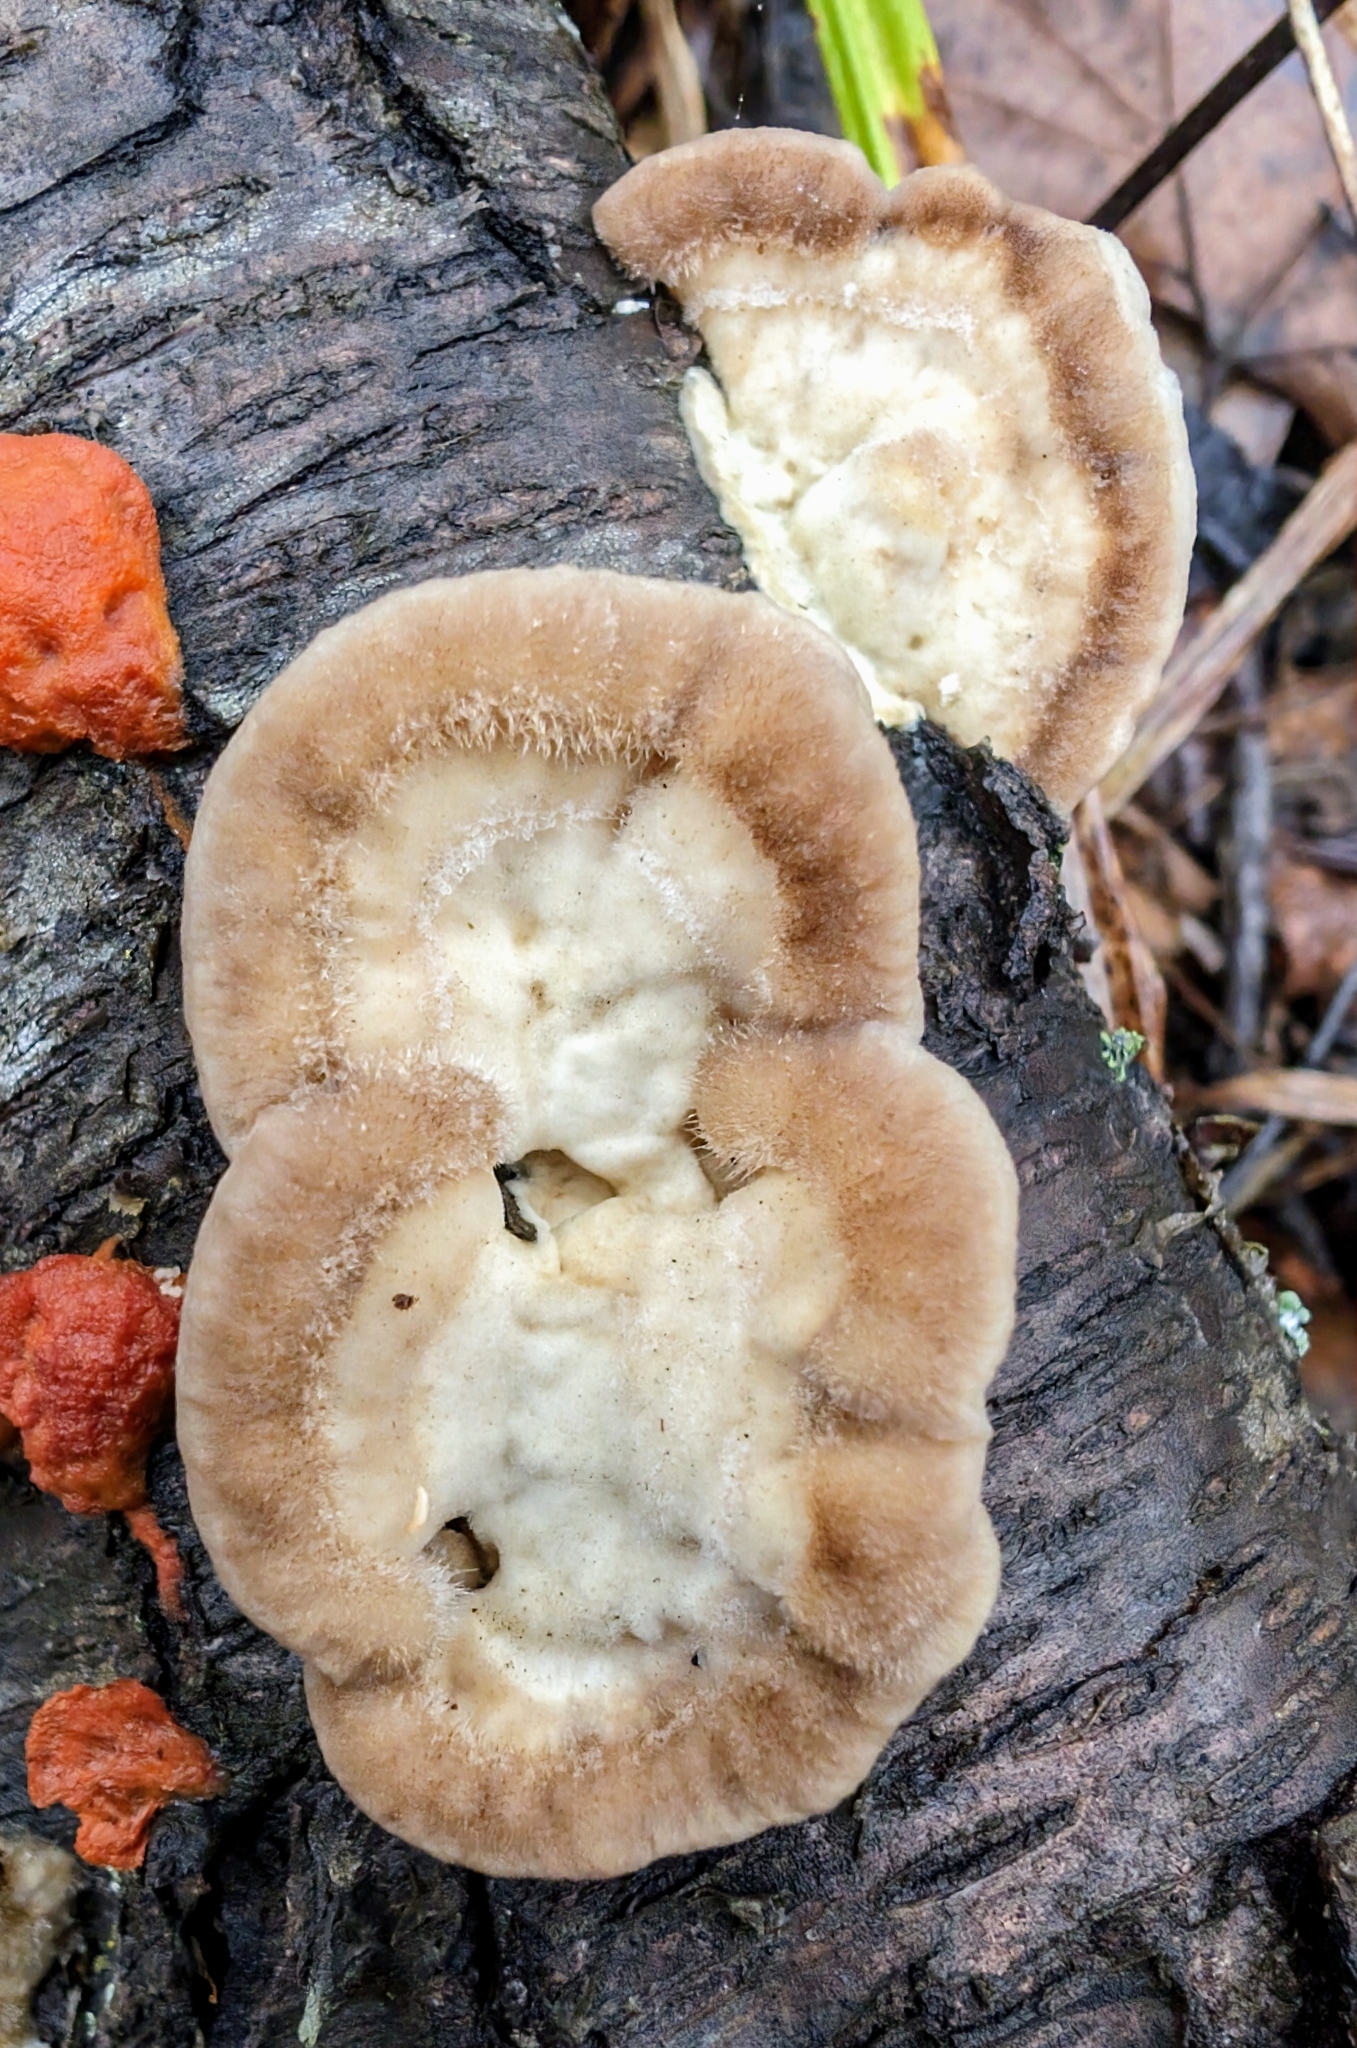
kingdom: Fungi
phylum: Basidiomycota
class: Agaricomycetes
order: Polyporales
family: Polyporaceae
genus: Trametes
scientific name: Trametes hirsuta
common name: Hairy bracket
